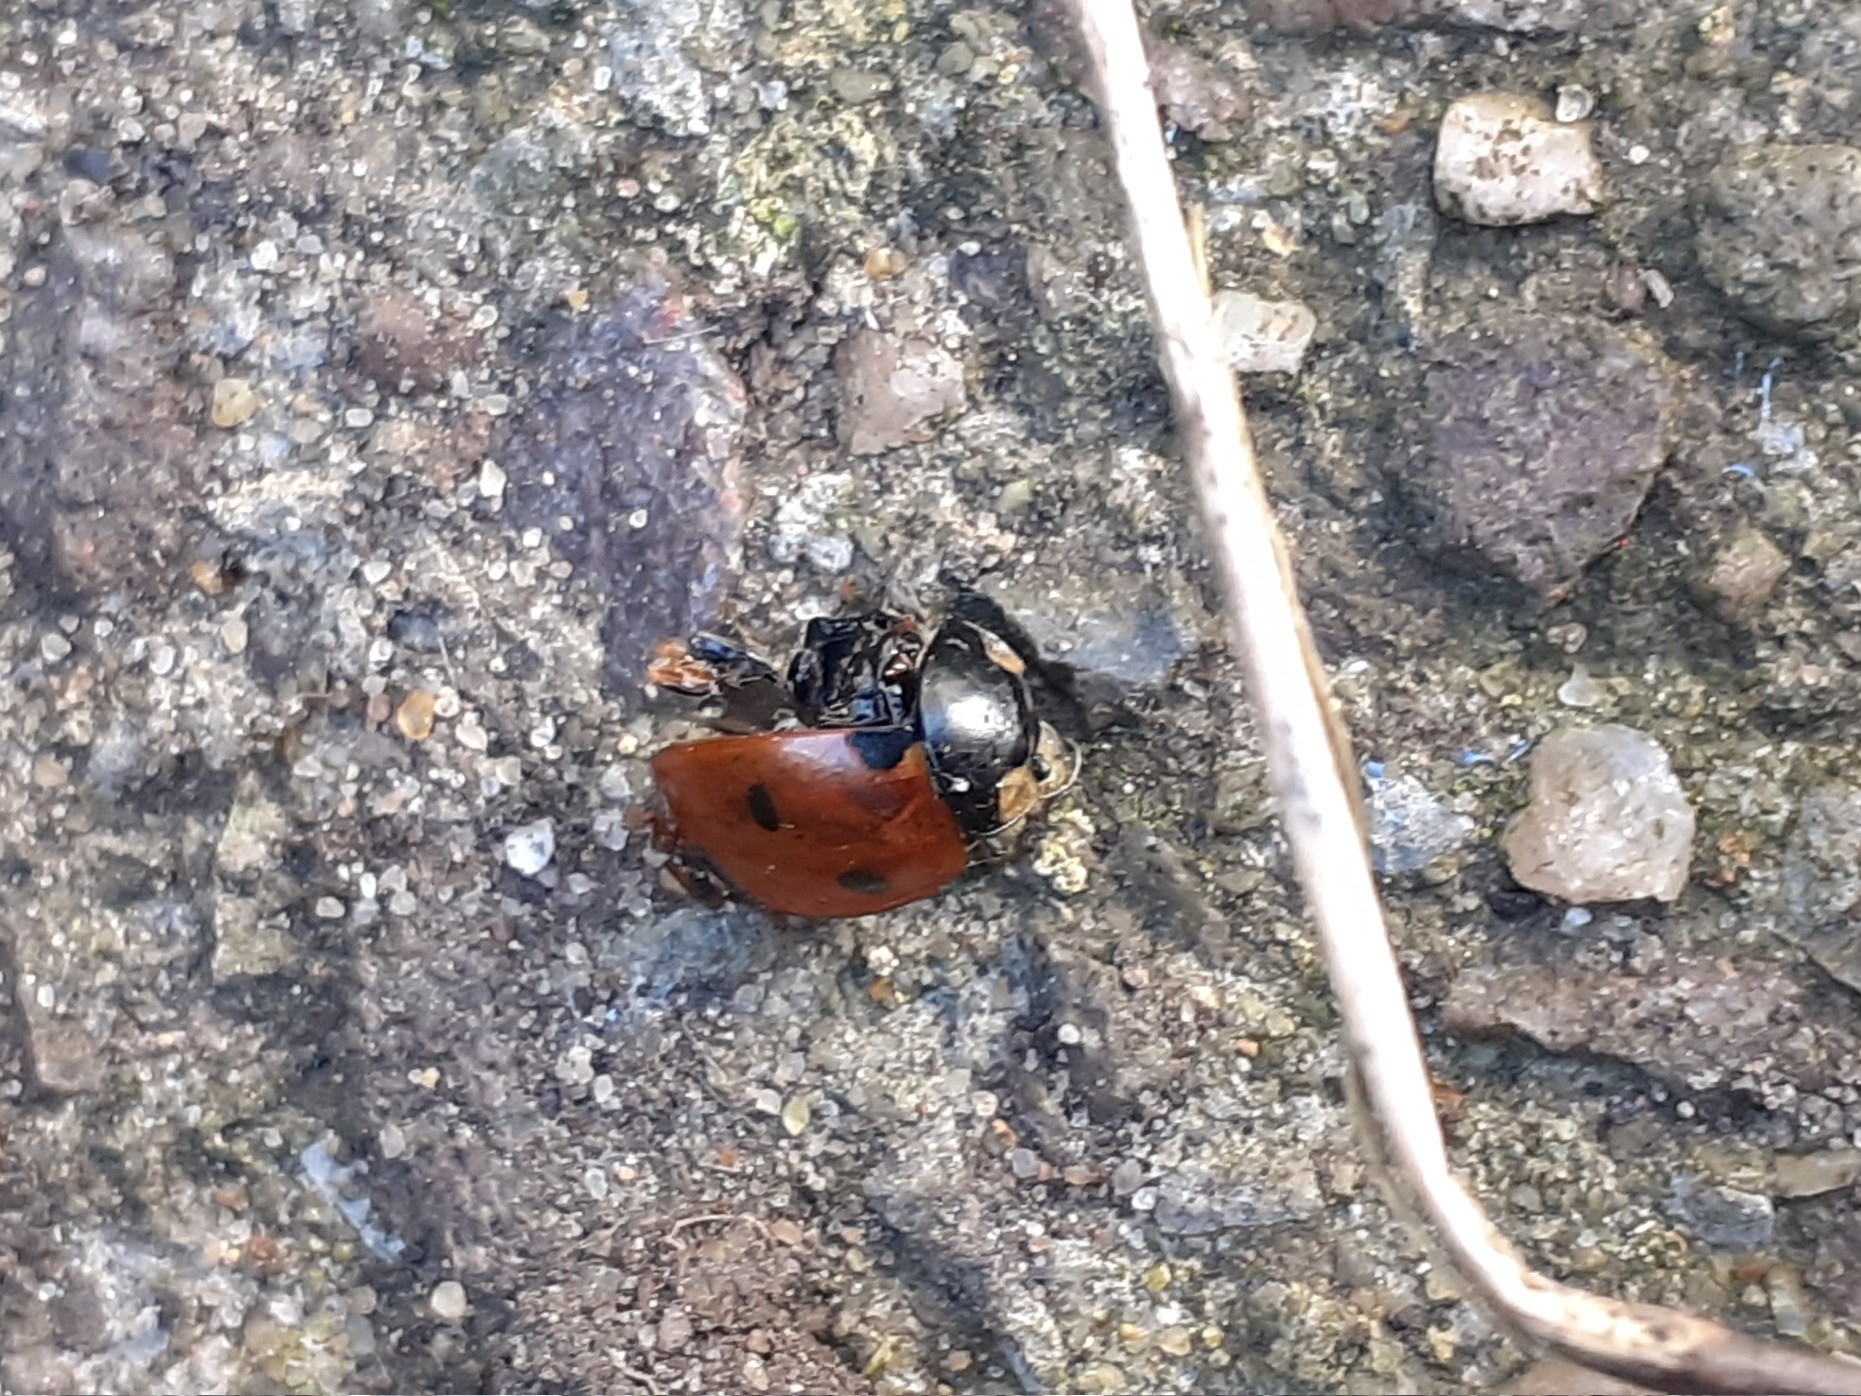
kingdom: Animalia
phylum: Arthropoda
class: Insecta
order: Coleoptera
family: Coccinellidae
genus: Coccinella
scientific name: Coccinella septempunctata
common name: Sevenspotted lady beetle
